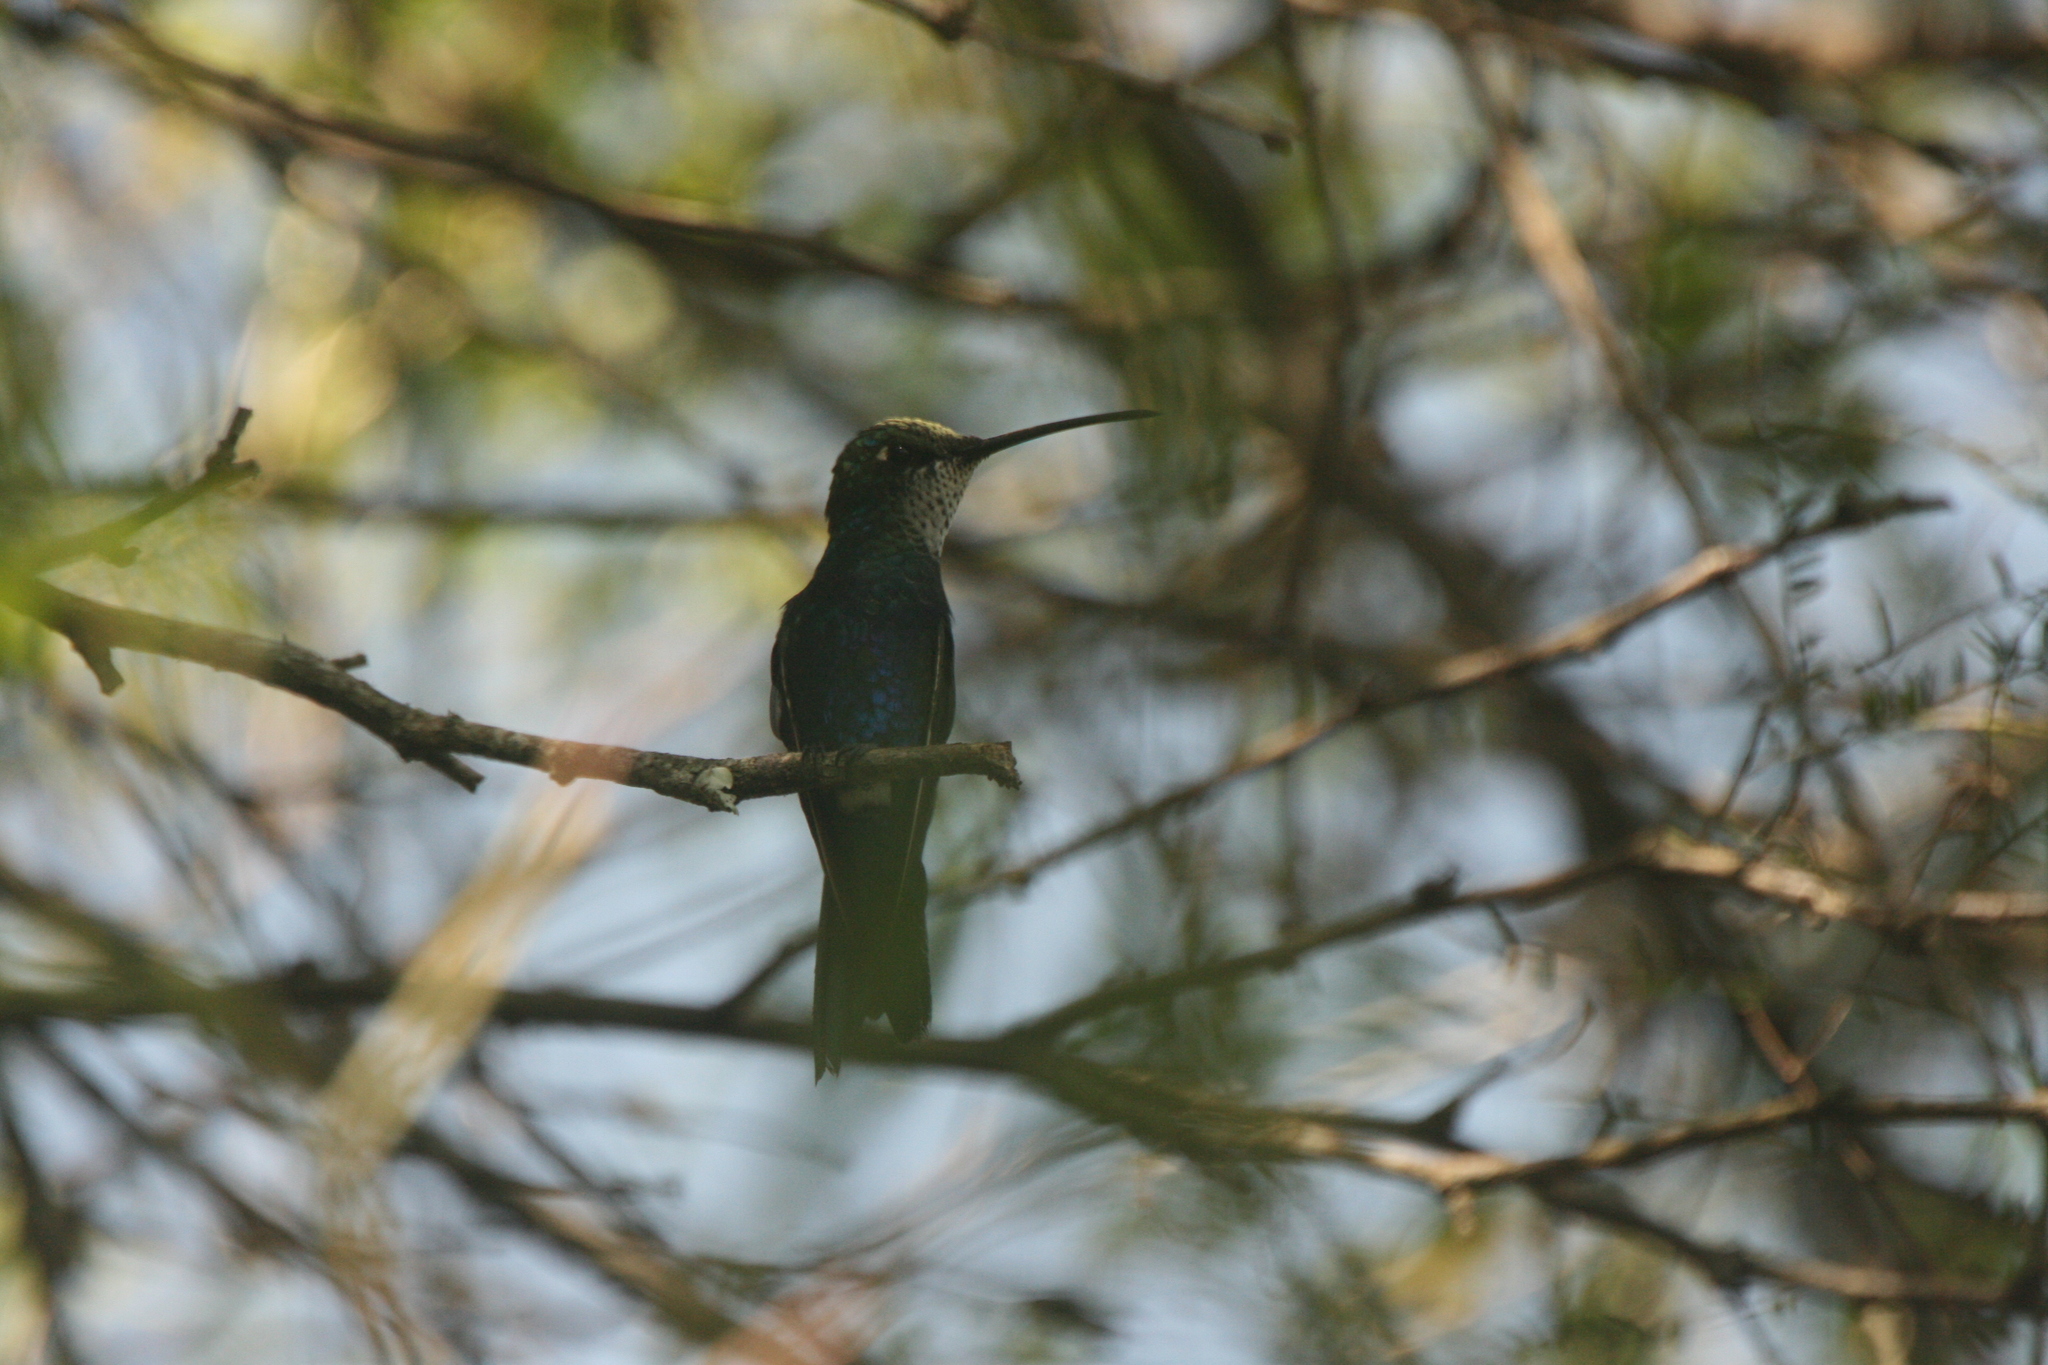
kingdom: Animalia
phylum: Chordata
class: Aves
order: Apodiformes
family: Trochilidae
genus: Heliomaster
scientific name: Heliomaster furcifer
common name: Blue-tufted starthroat
